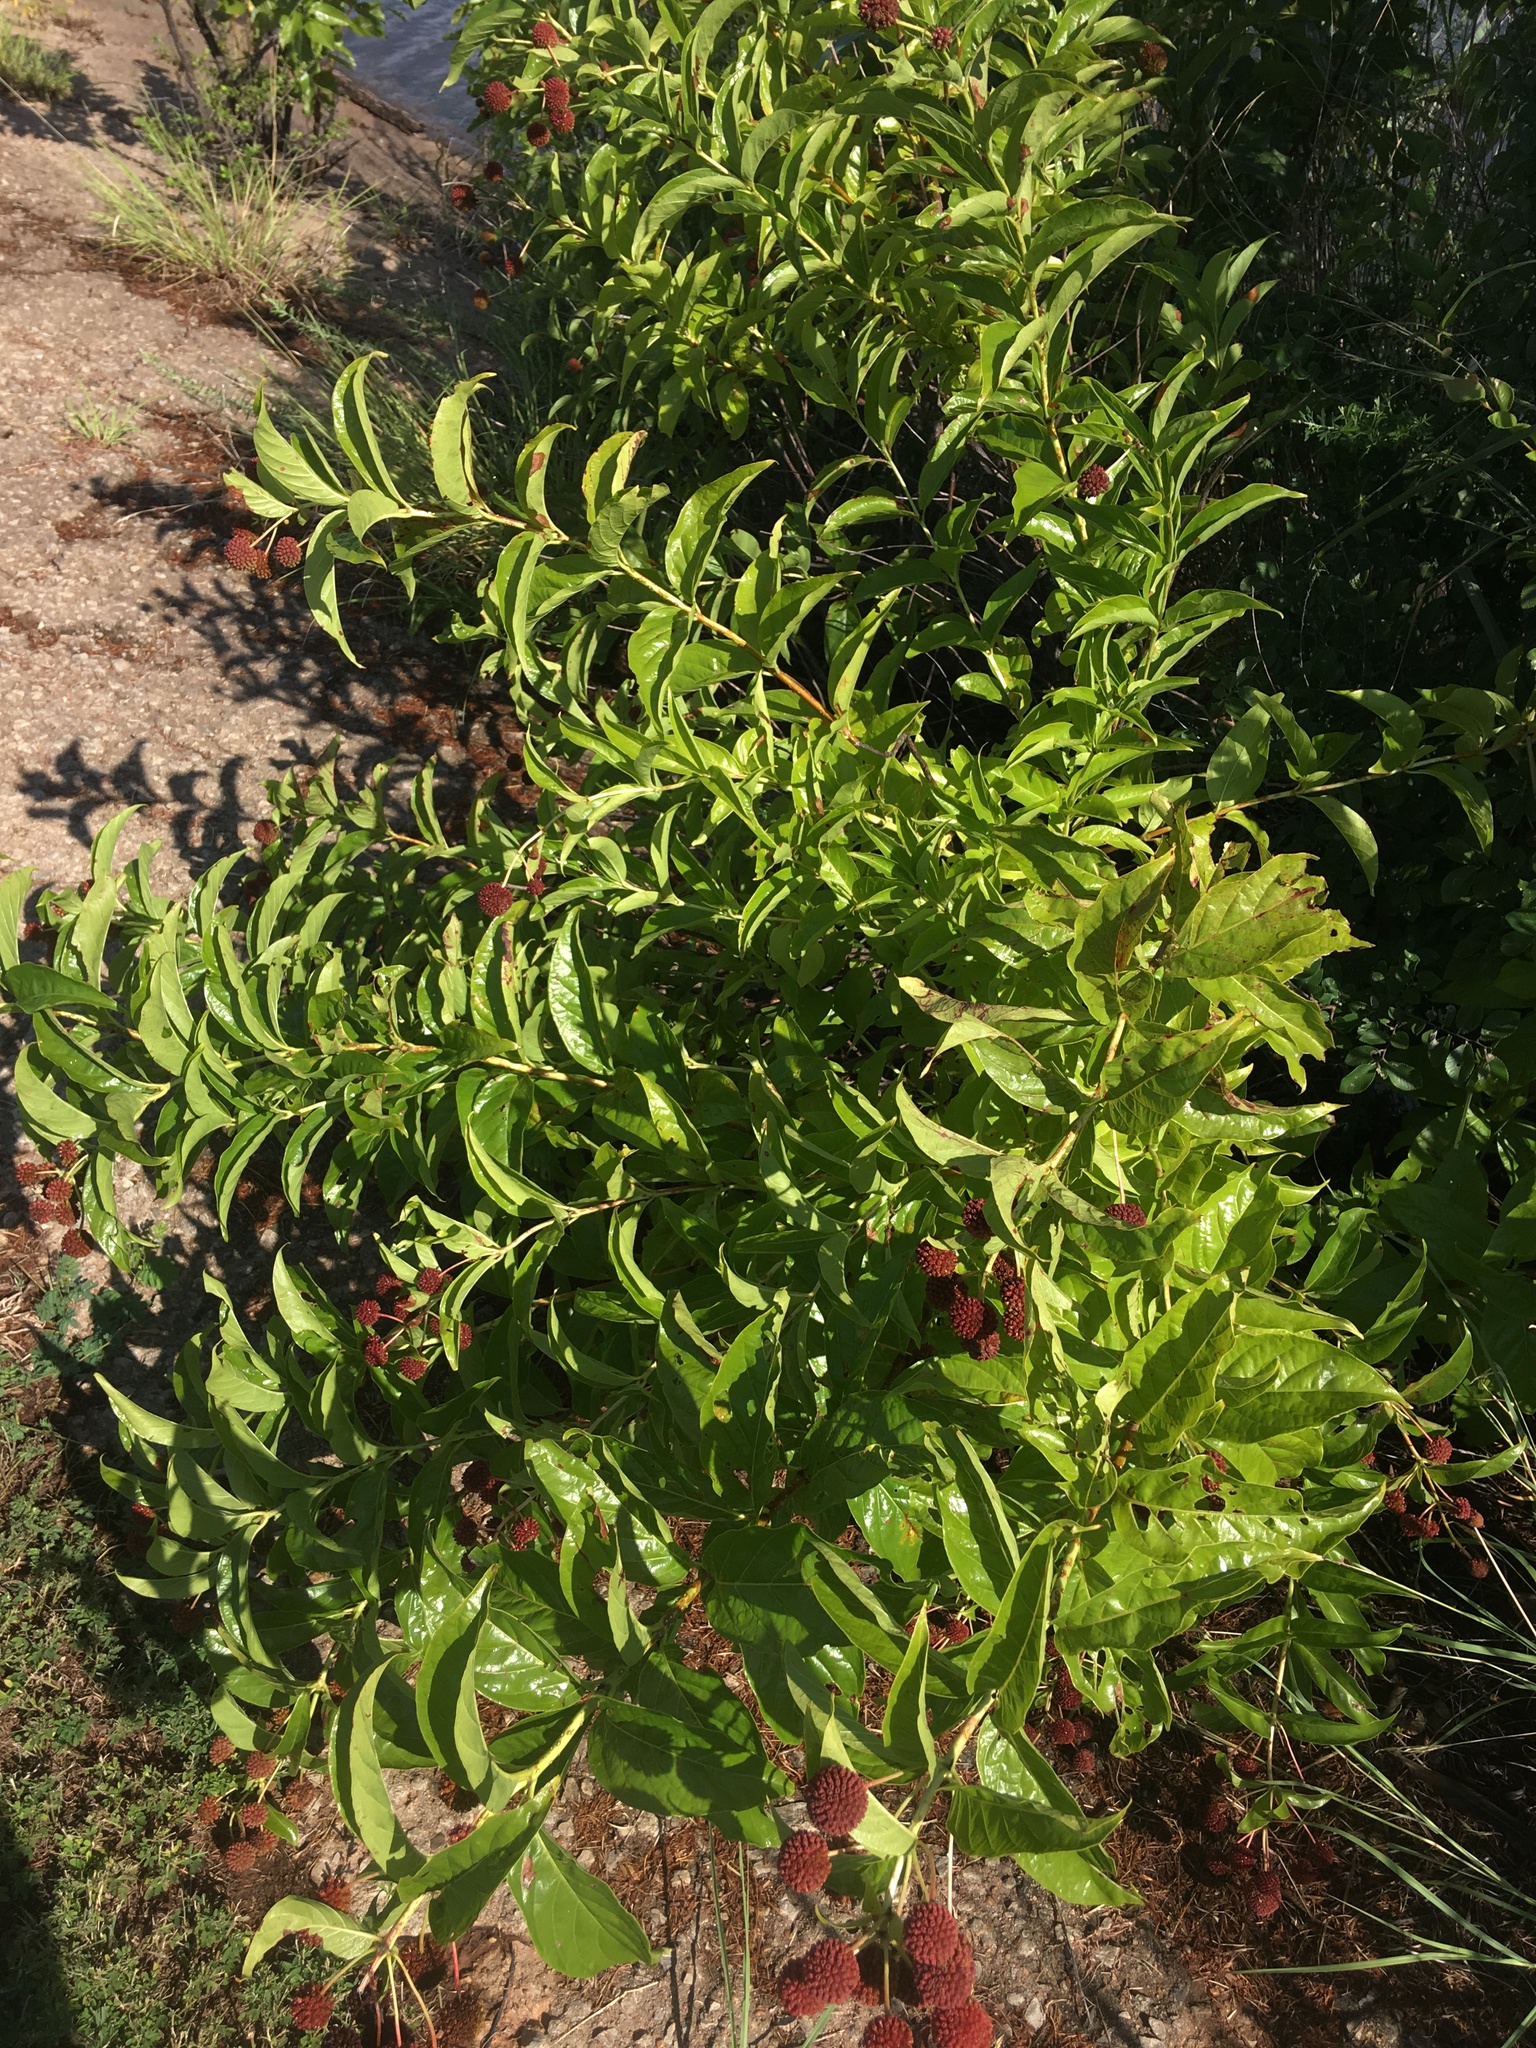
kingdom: Plantae
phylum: Tracheophyta
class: Magnoliopsida
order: Gentianales
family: Rubiaceae
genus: Cephalanthus
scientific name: Cephalanthus occidentalis
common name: Button-willow
